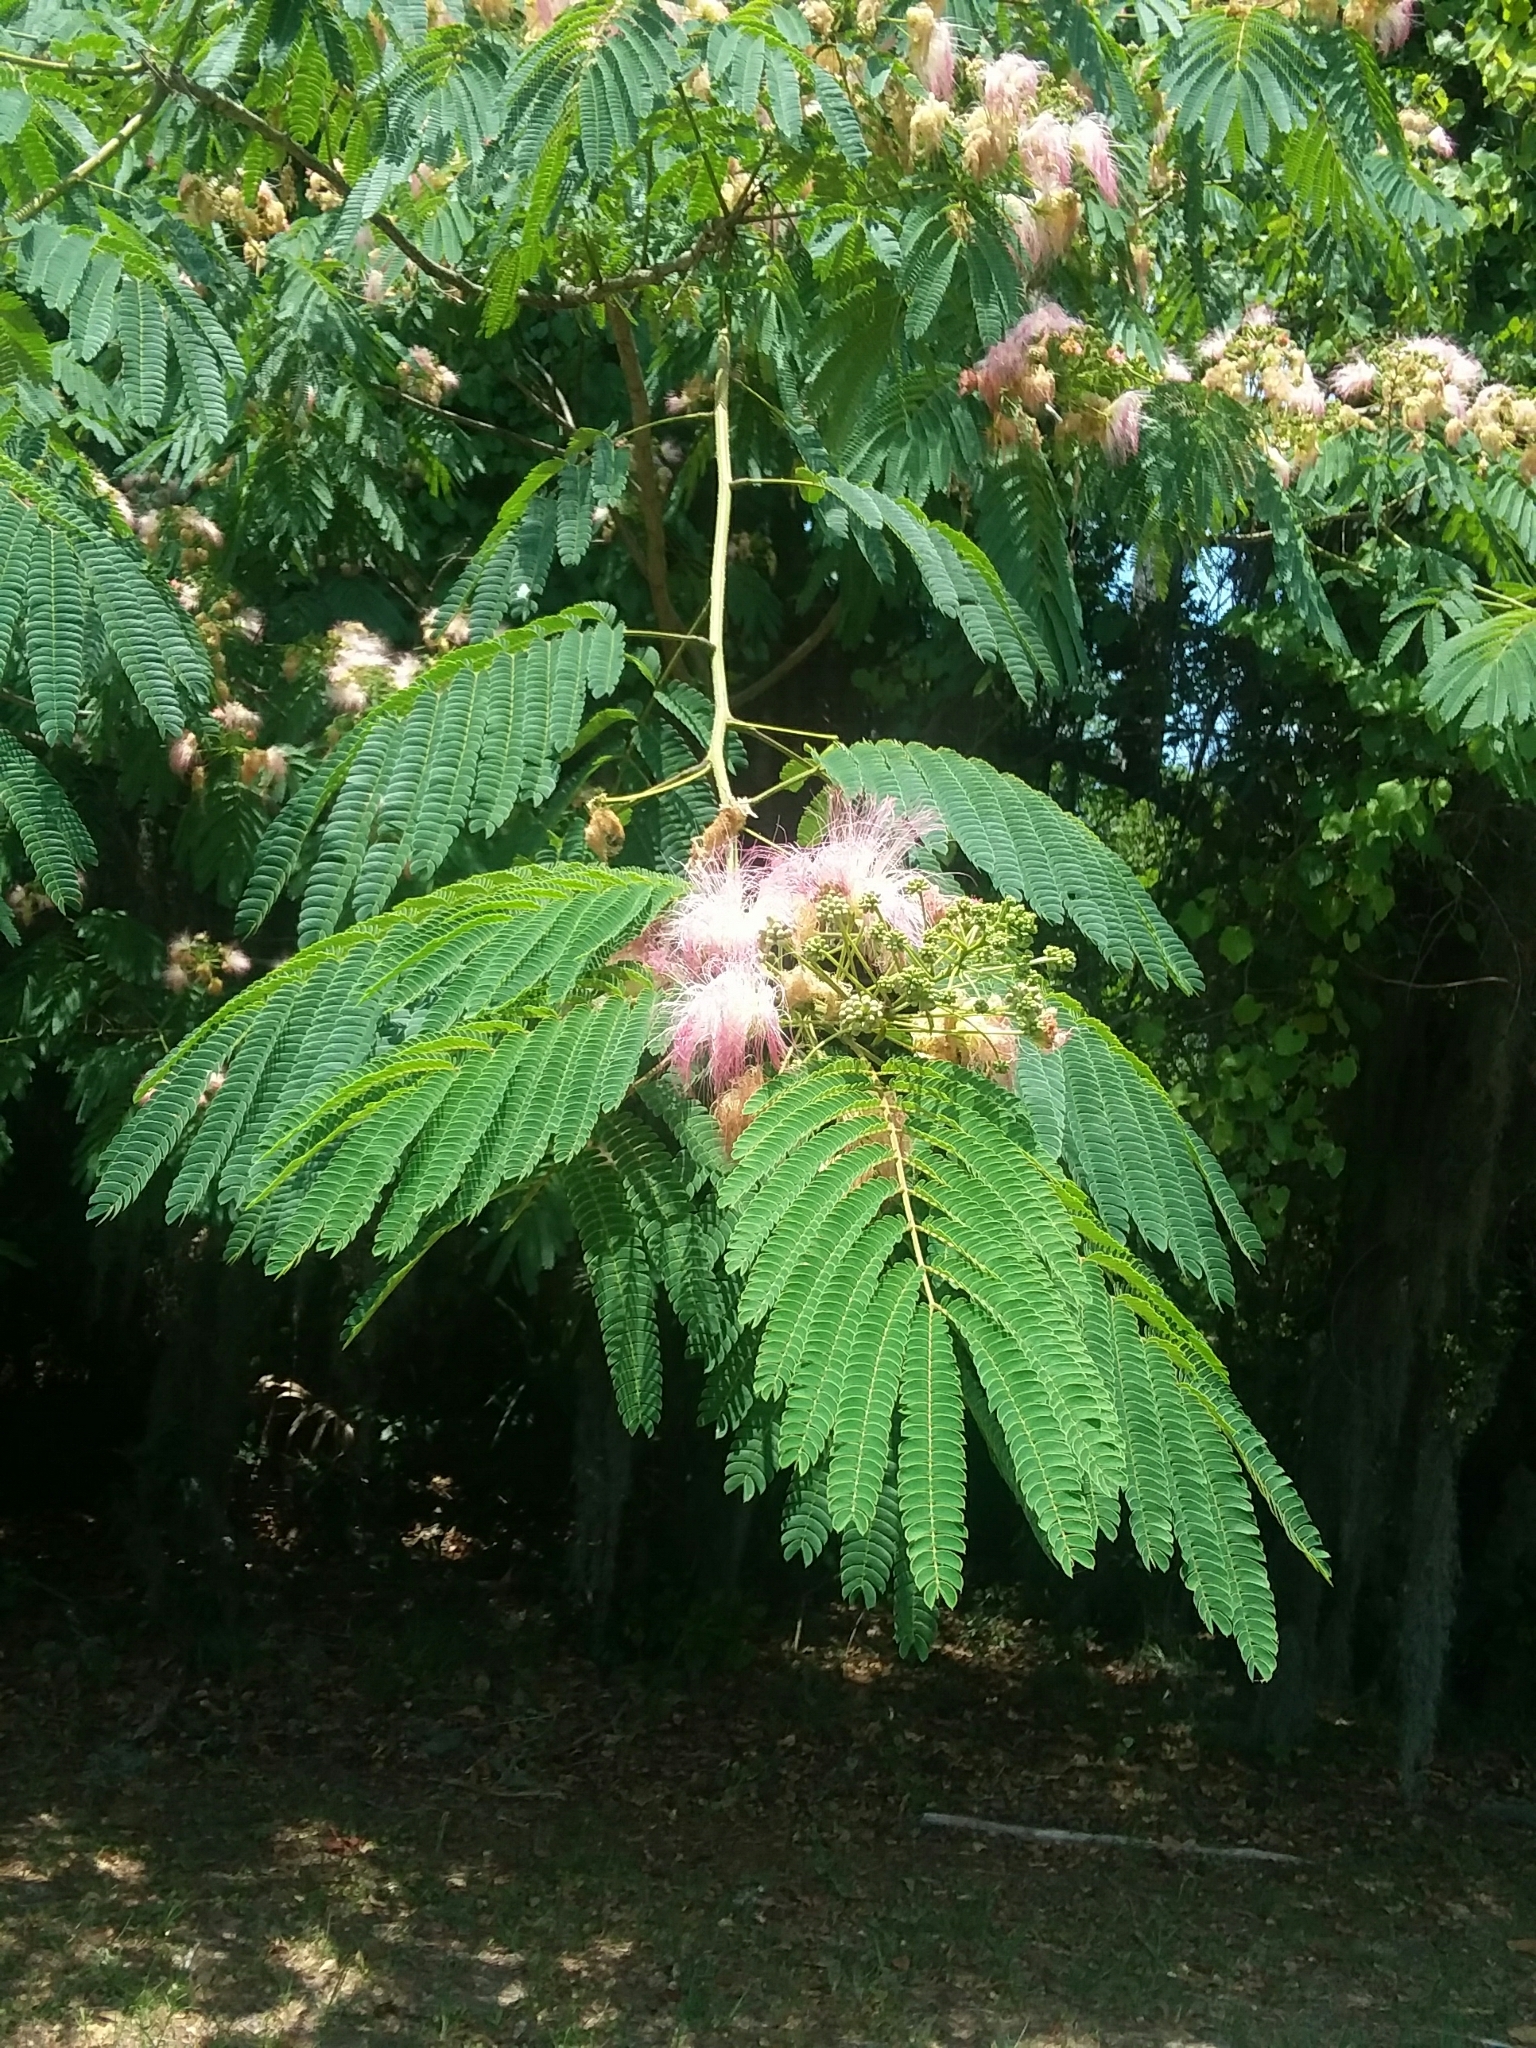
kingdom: Plantae
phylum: Tracheophyta
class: Magnoliopsida
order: Fabales
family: Fabaceae
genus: Albizia
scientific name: Albizia julibrissin
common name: Silktree
